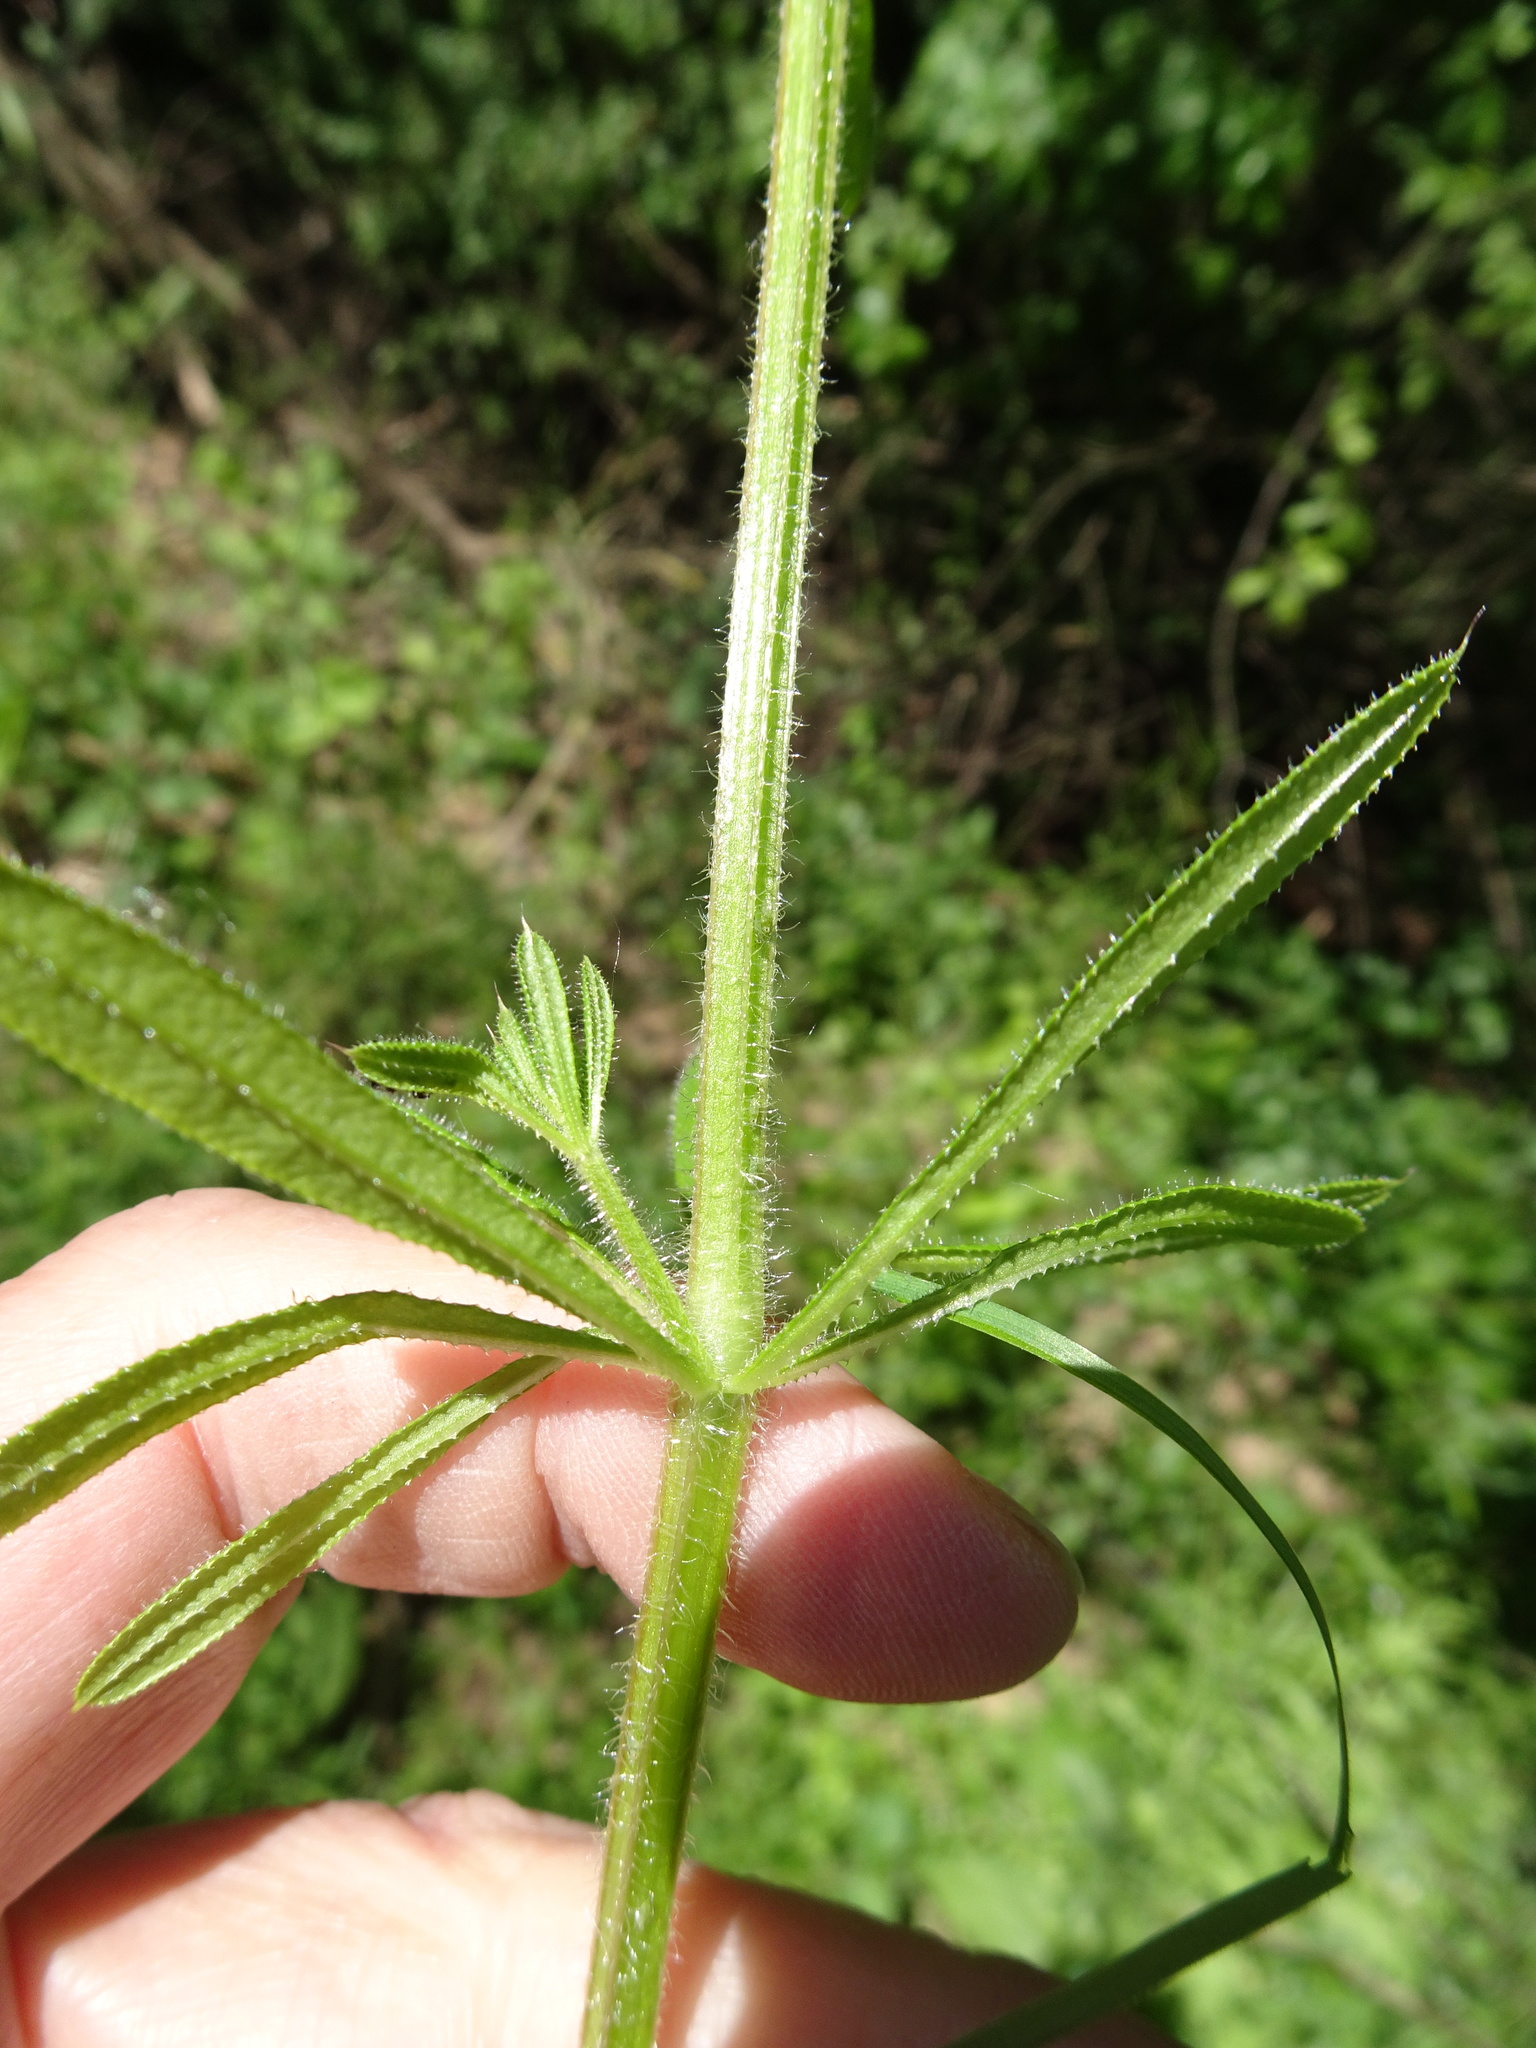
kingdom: Plantae
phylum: Tracheophyta
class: Magnoliopsida
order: Gentianales
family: Rubiaceae
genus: Galium
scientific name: Galium aparine
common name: Cleavers
